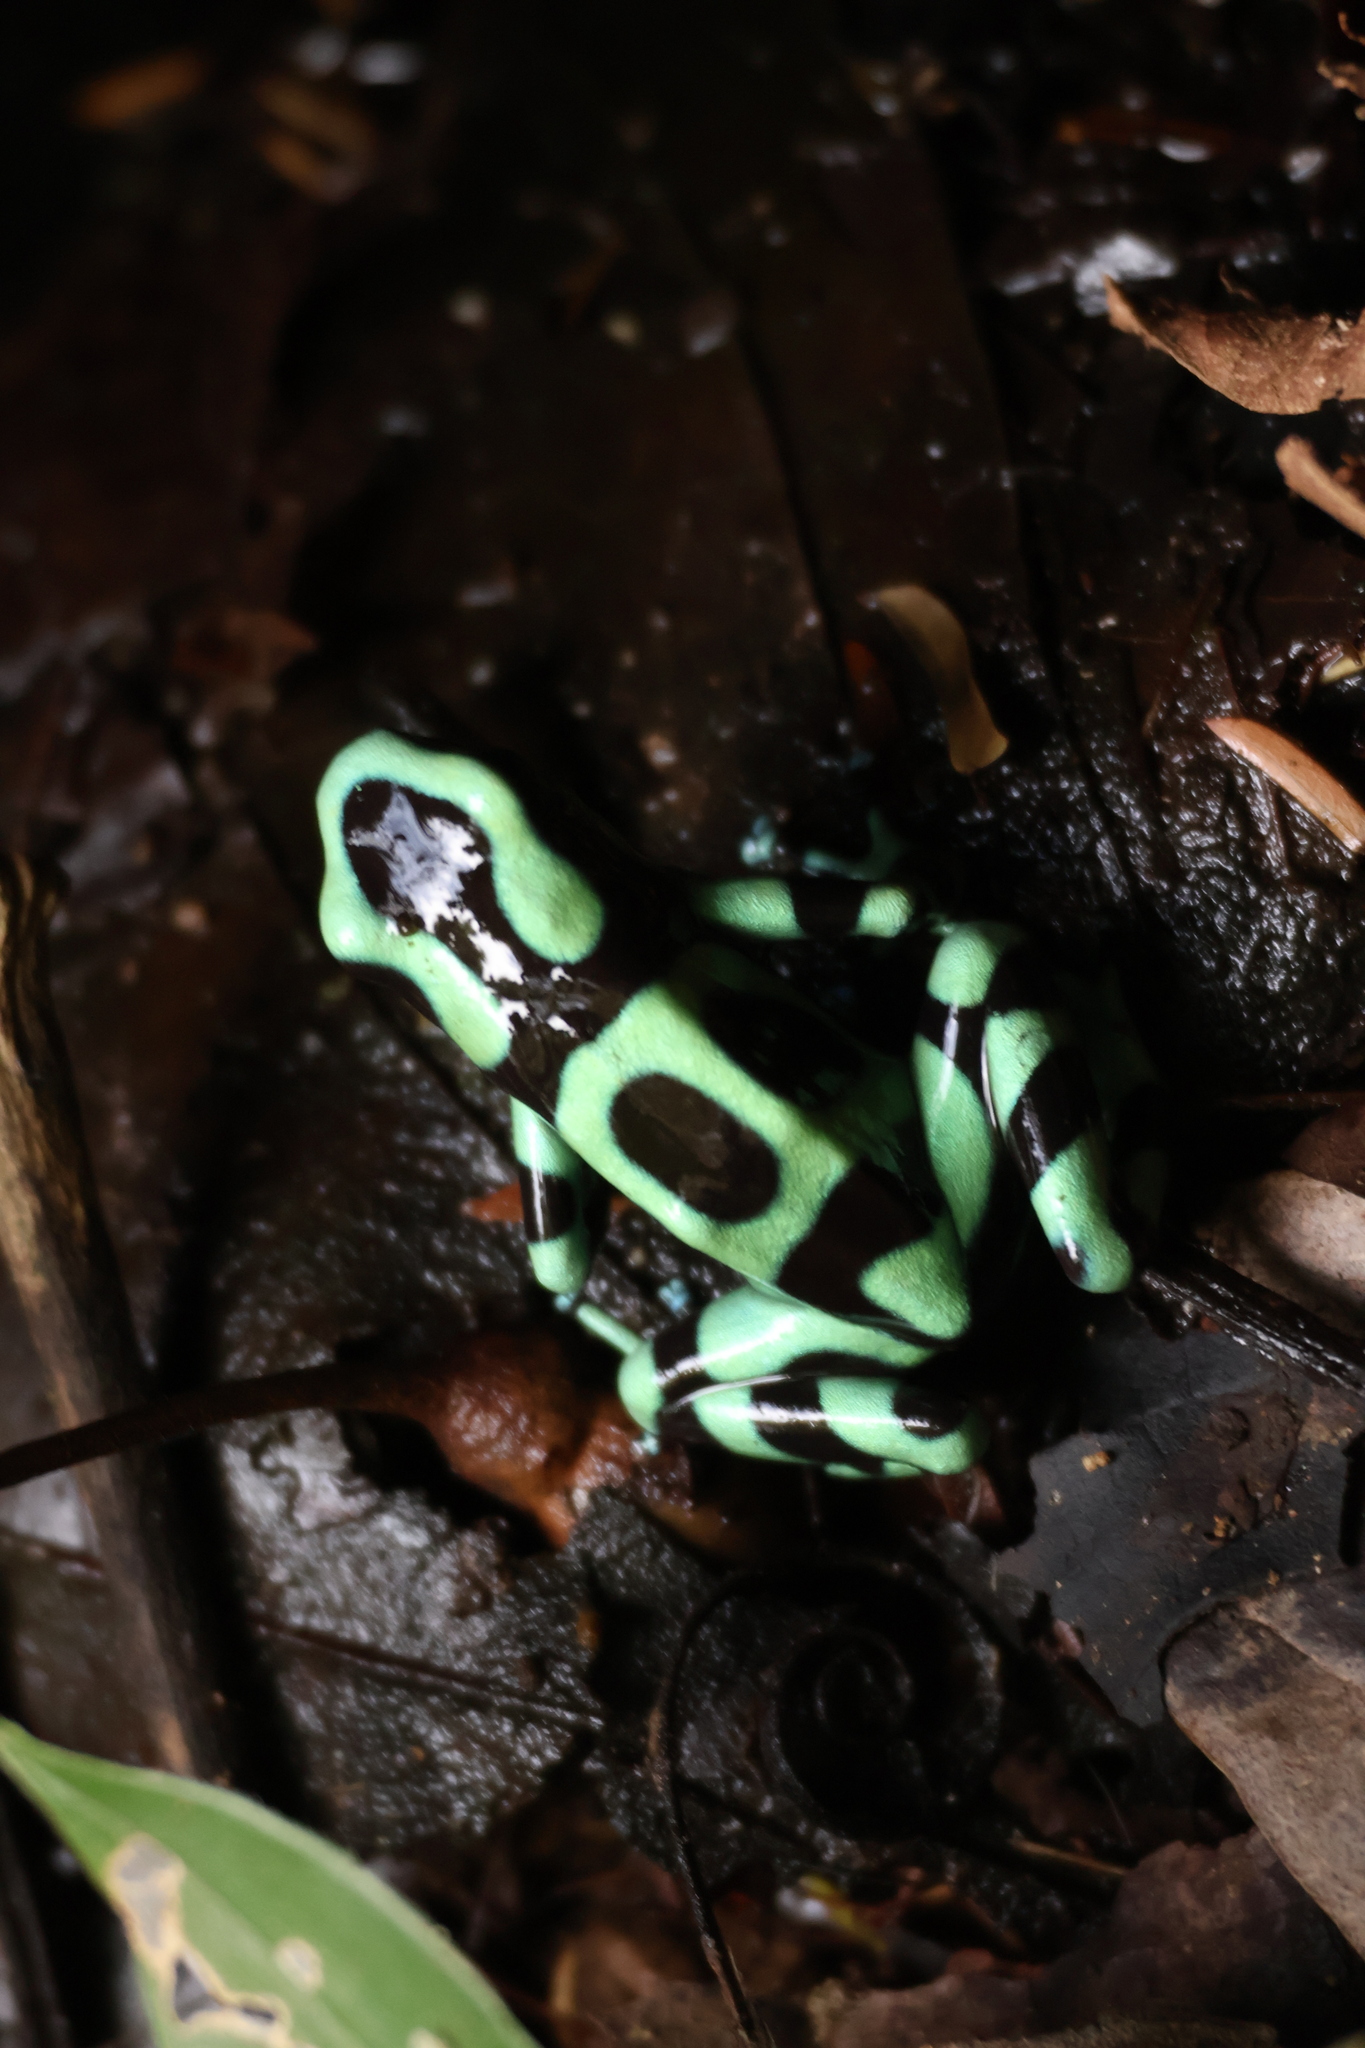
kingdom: Animalia
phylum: Chordata
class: Amphibia
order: Anura
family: Dendrobatidae
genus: Dendrobates
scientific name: Dendrobates auratus
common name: Green and black poison dart frog
